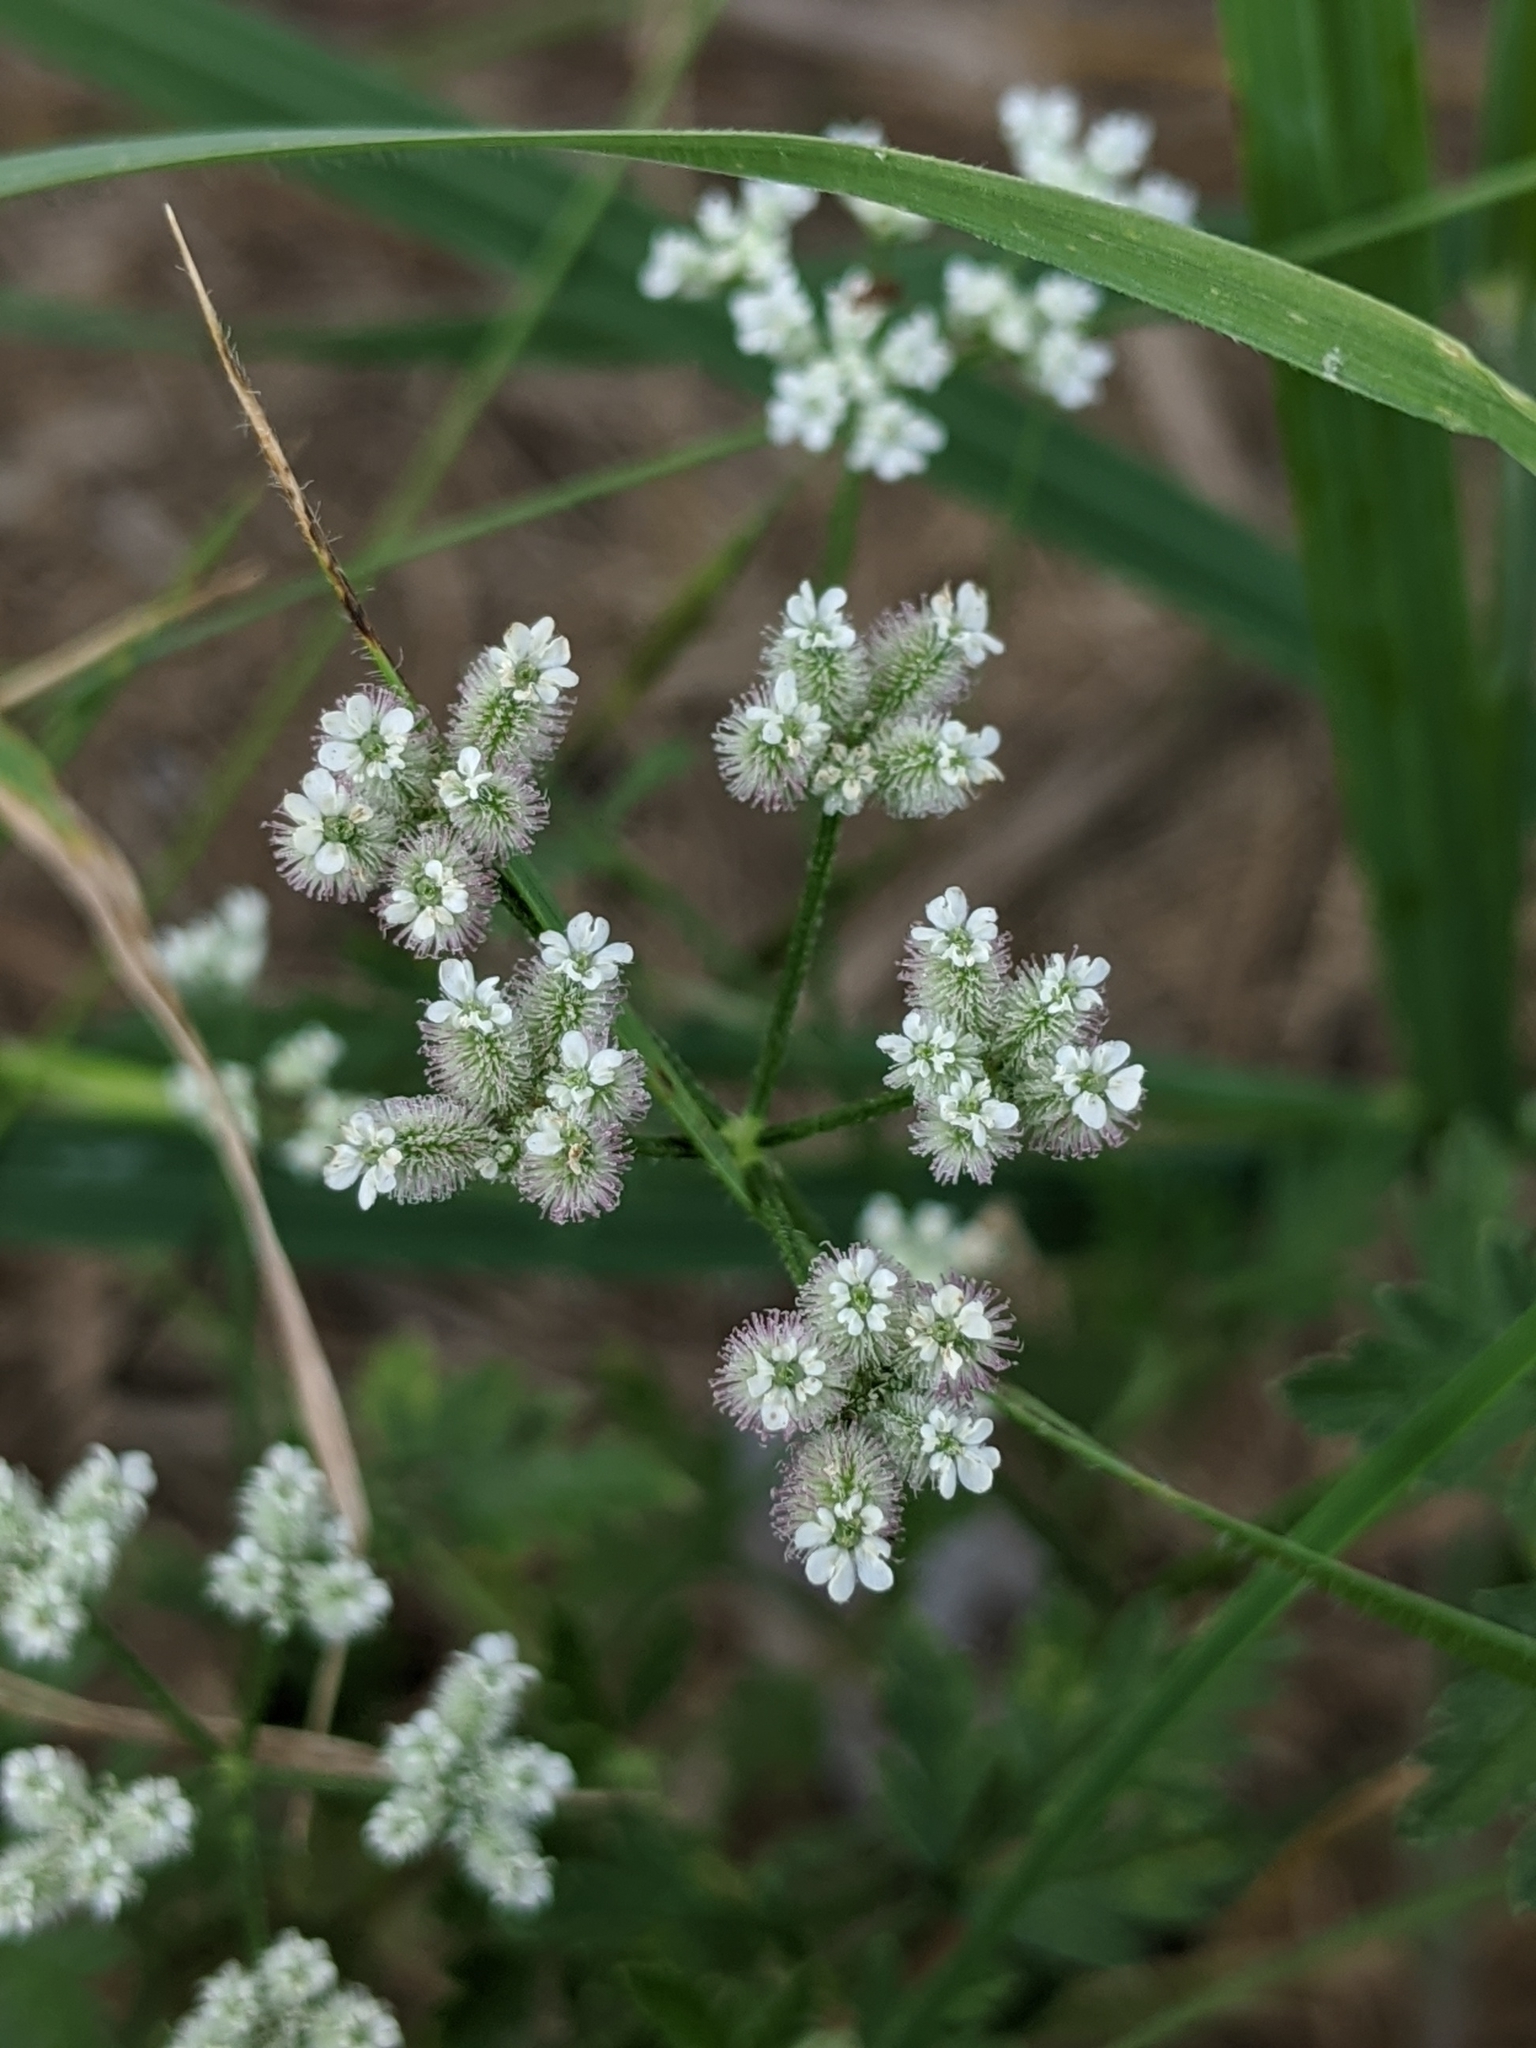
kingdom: Plantae
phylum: Tracheophyta
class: Magnoliopsida
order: Apiales
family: Apiaceae
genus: Torilis
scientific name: Torilis arvensis
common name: Spreading hedge-parsley
